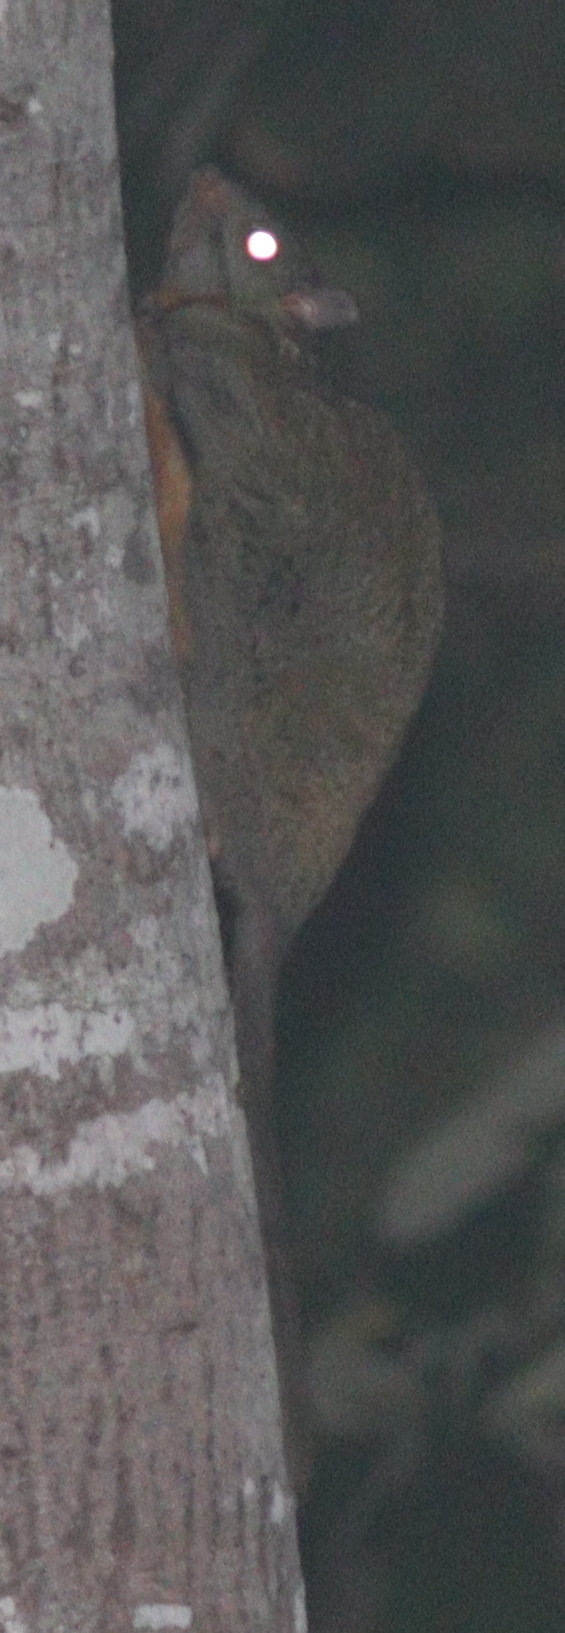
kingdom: Animalia
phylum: Chordata
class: Mammalia
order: Rodentia
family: Anomaluridae
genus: Anomalurus
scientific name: Anomalurus beecrofti
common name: Beecroft's scaly-tailed squirrel
